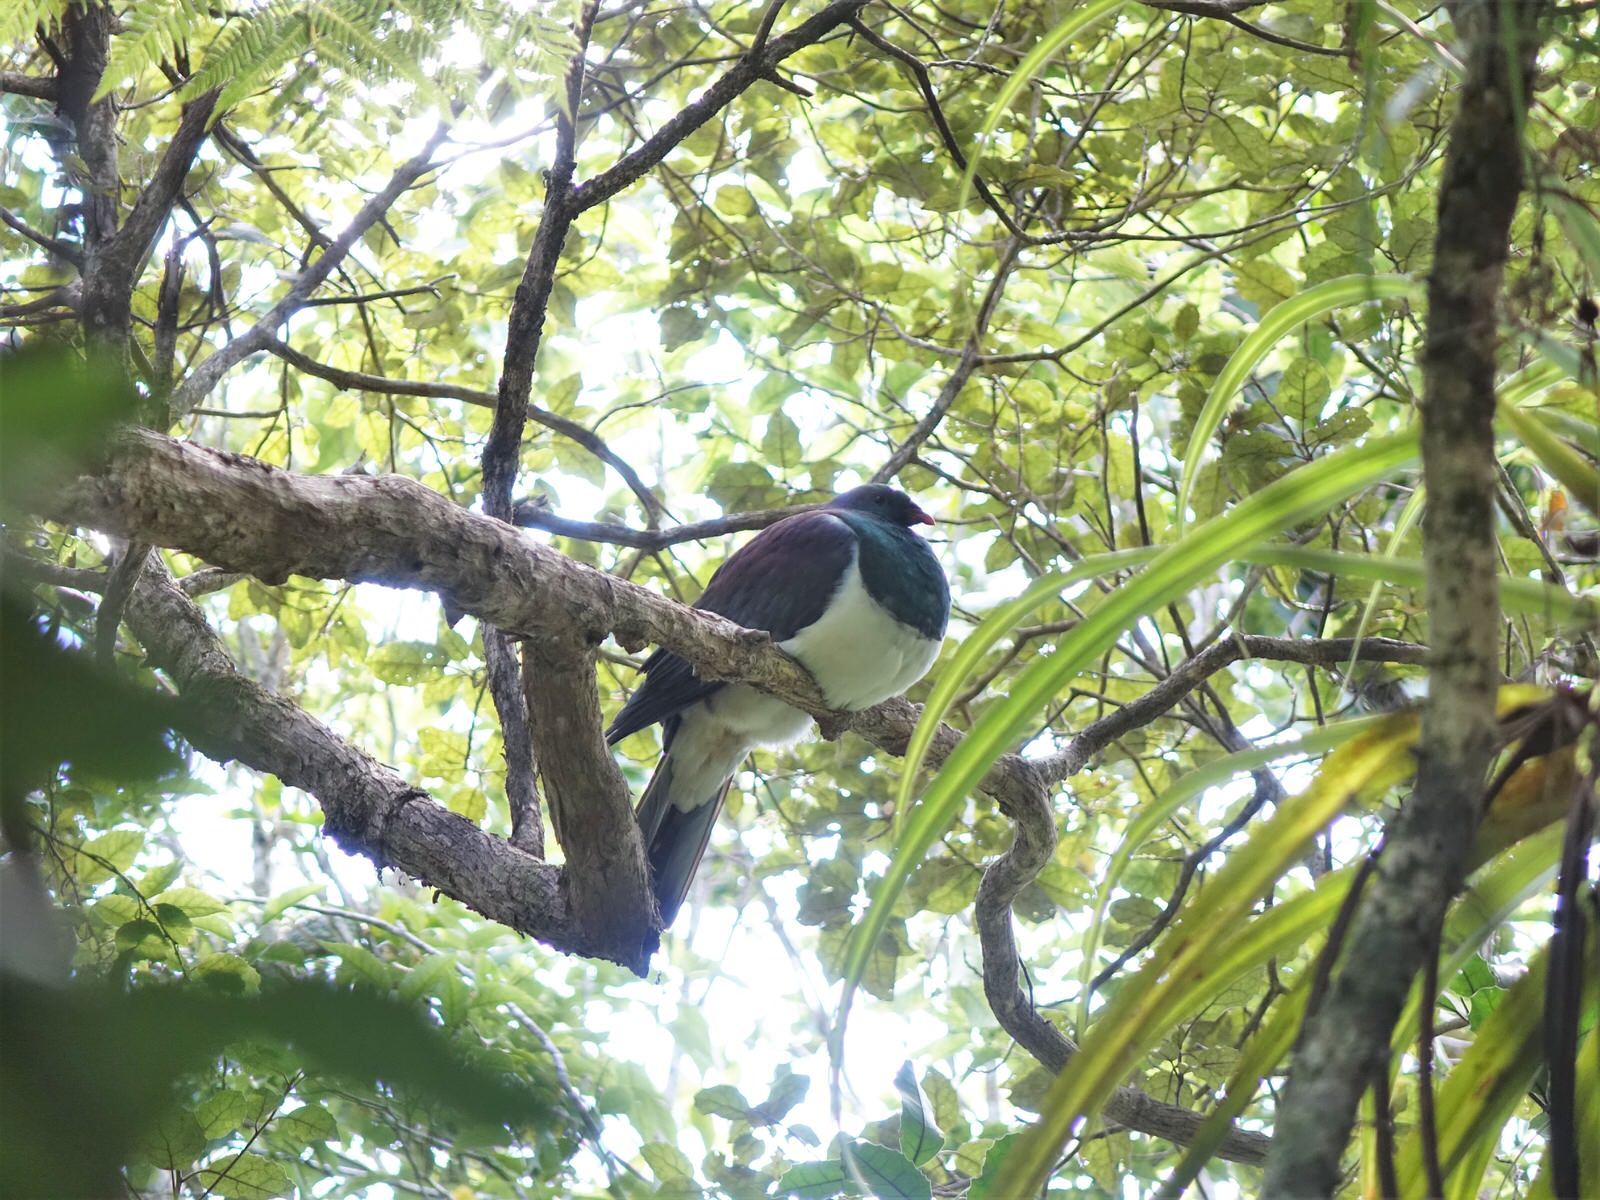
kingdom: Animalia
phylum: Chordata
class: Aves
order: Columbiformes
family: Columbidae
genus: Hemiphaga
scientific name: Hemiphaga novaeseelandiae
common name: New zealand pigeon
